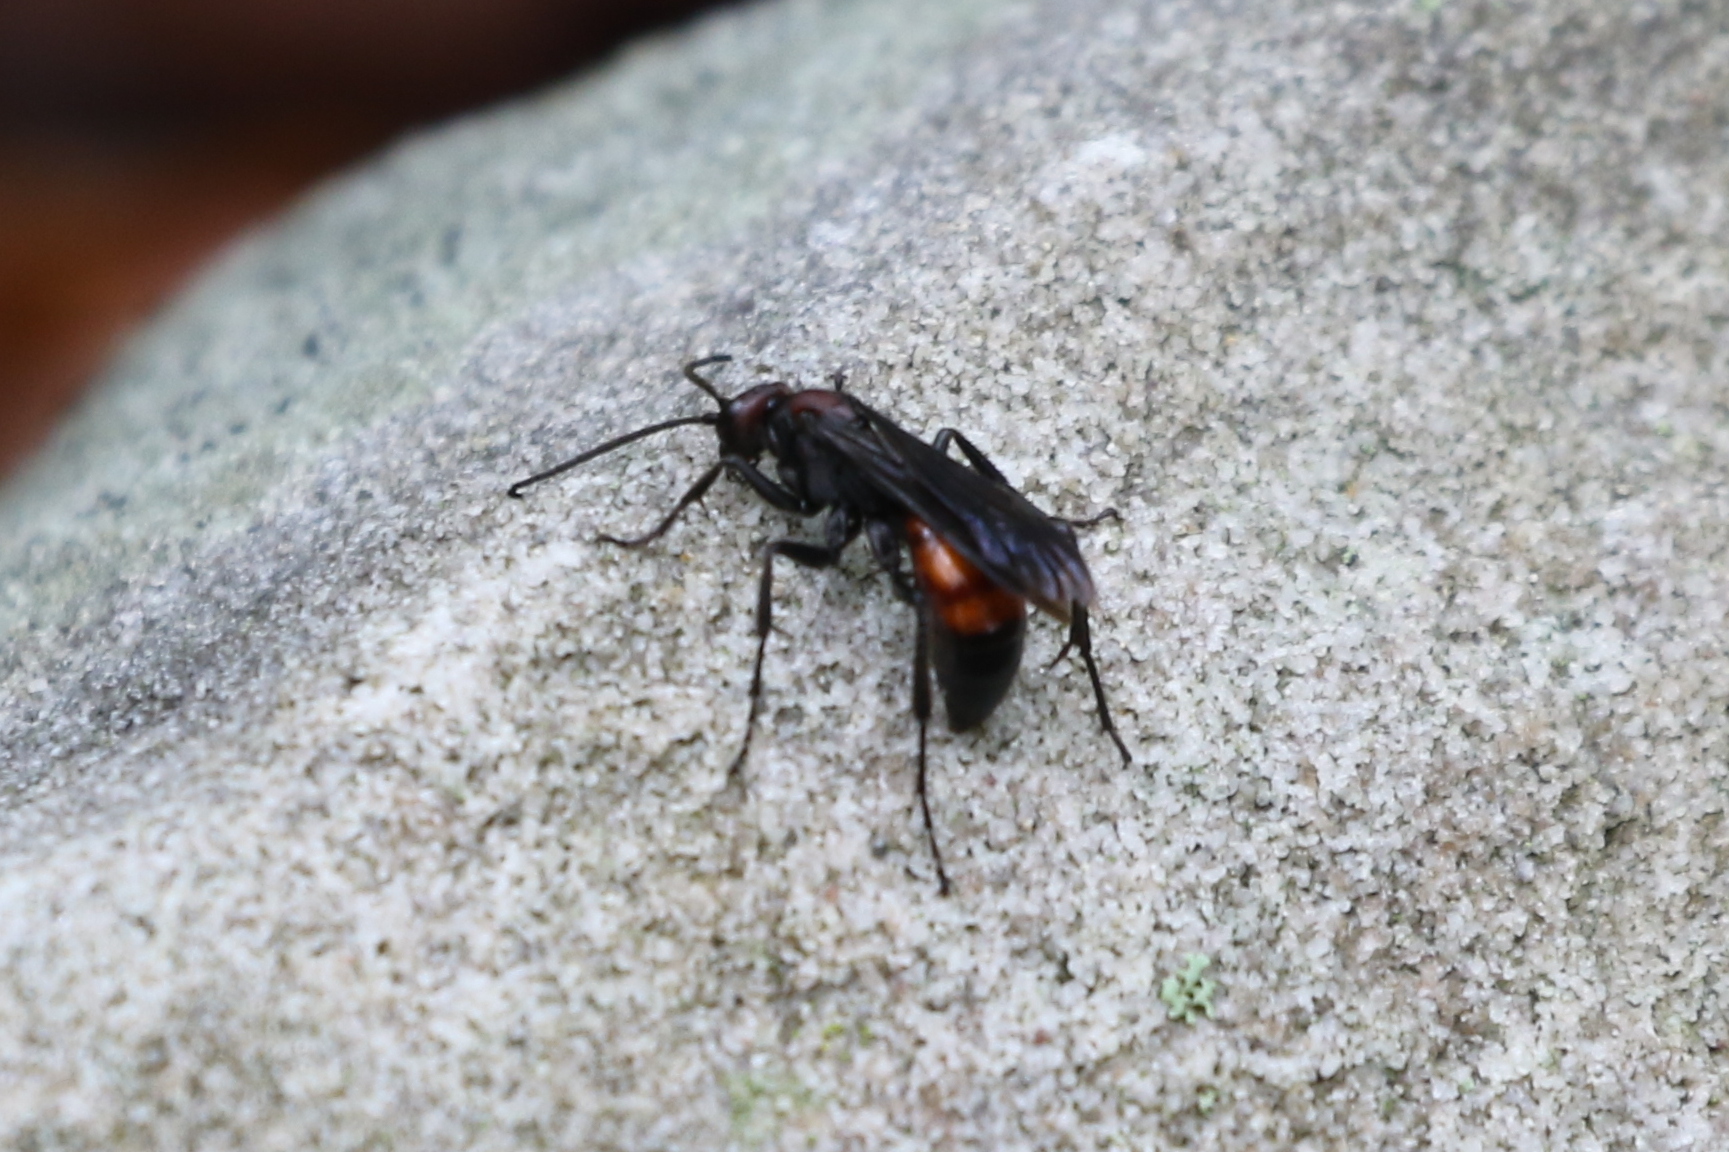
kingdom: Animalia
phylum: Arthropoda
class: Insecta
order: Hymenoptera
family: Pompilidae
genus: Priocnemis
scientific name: Priocnemis nigripes
